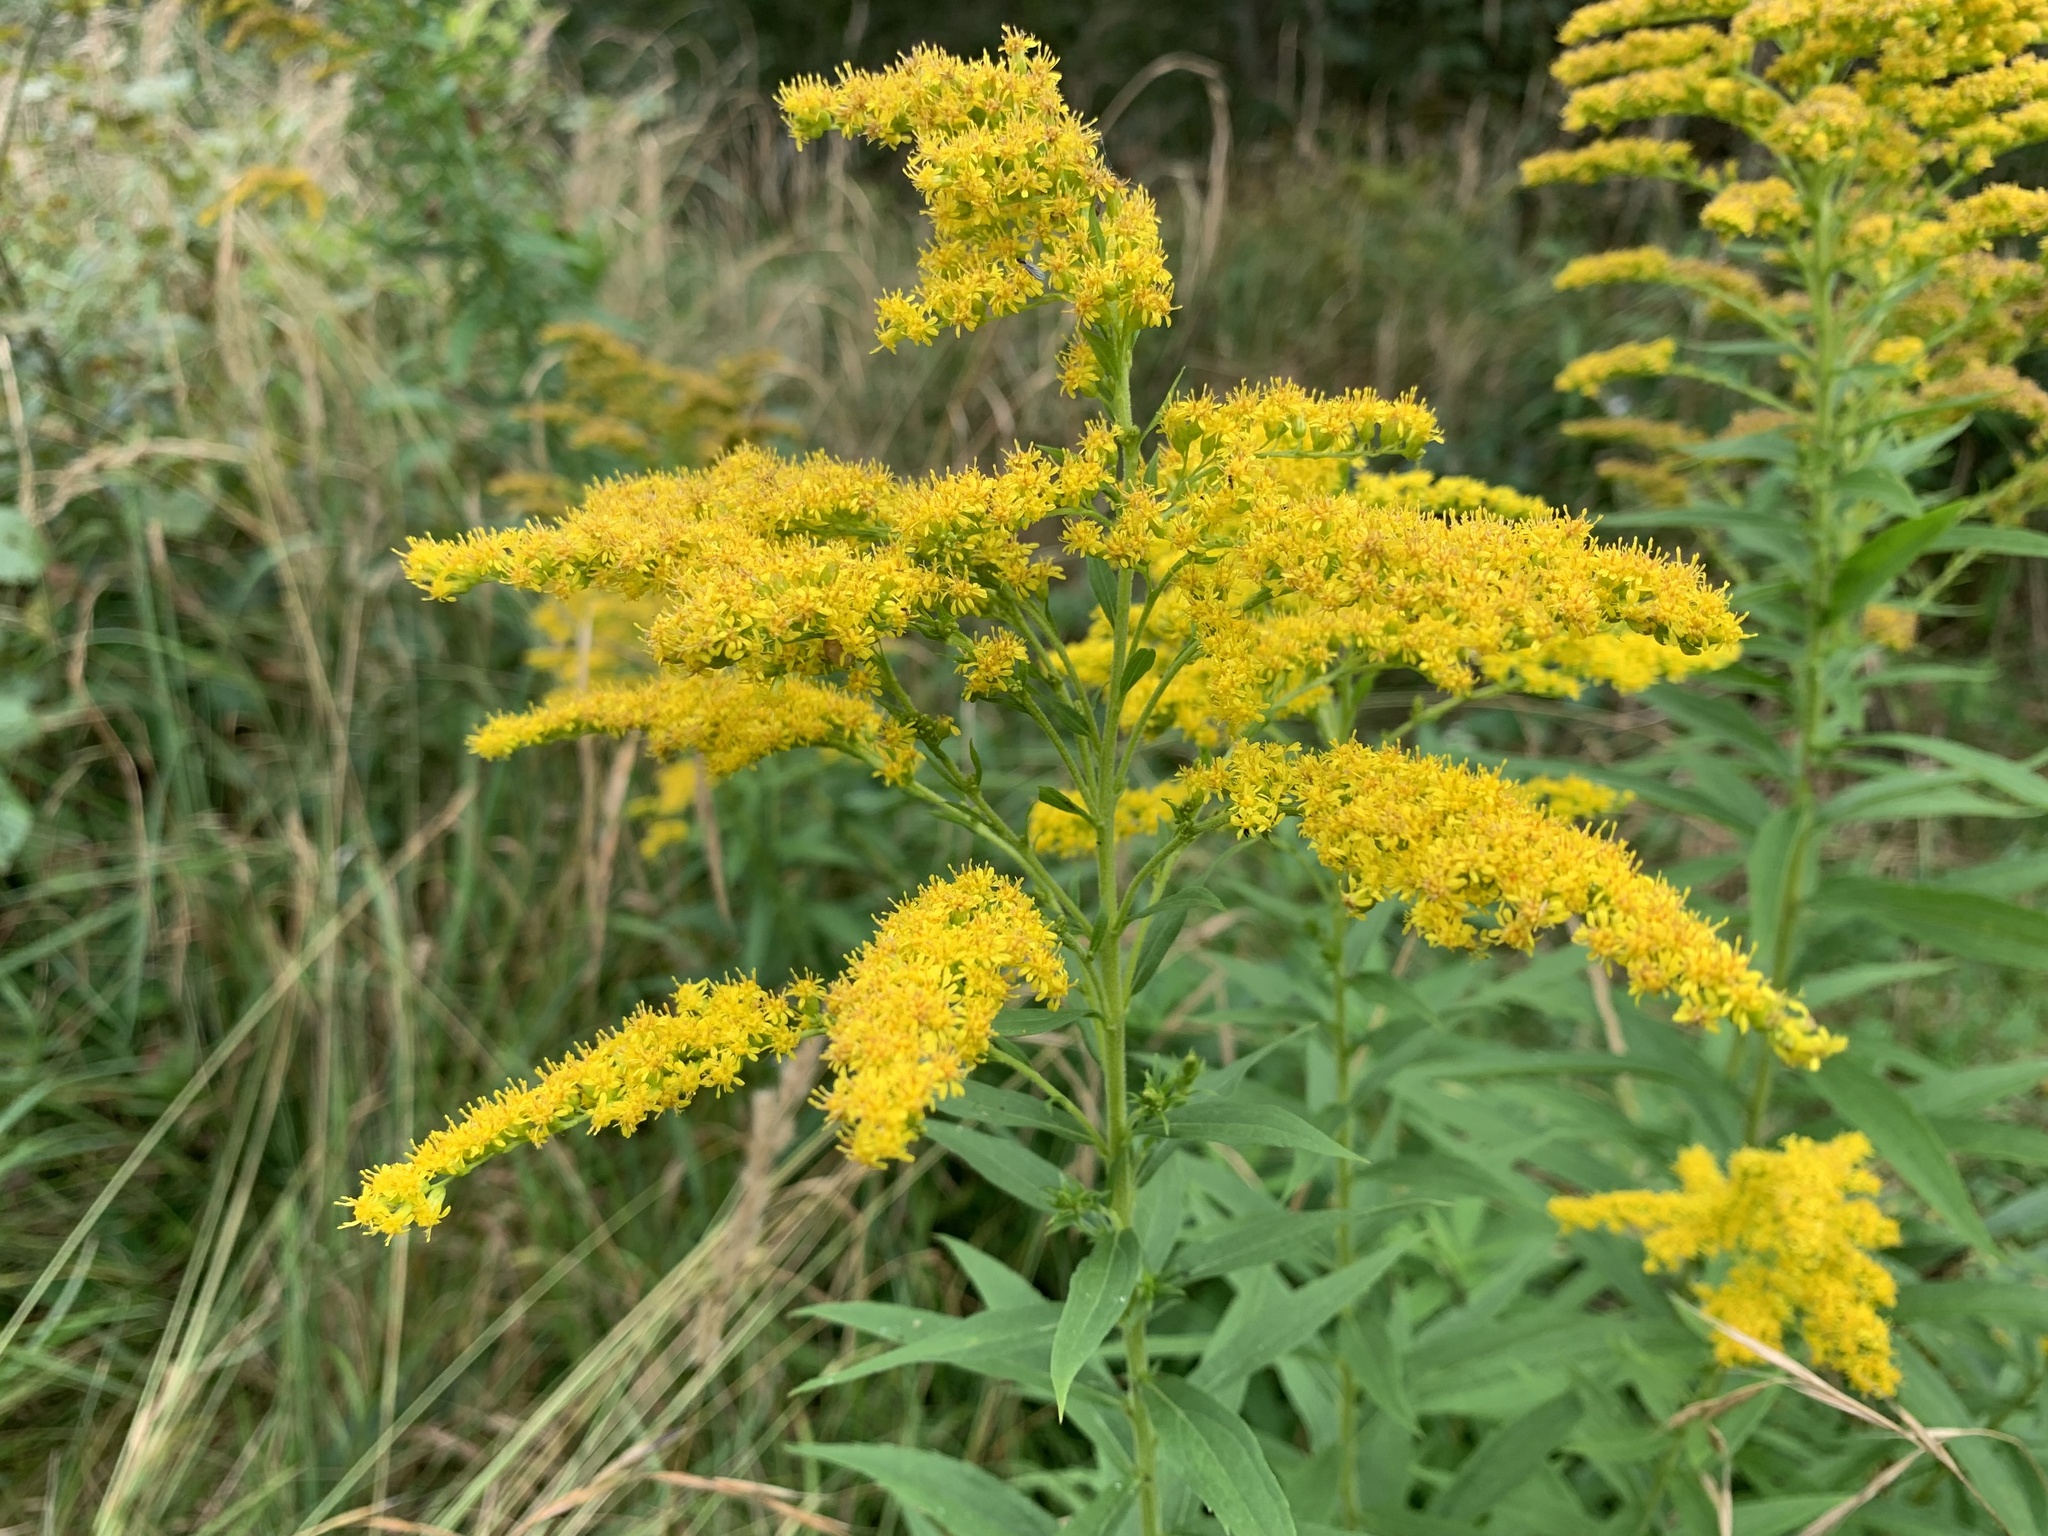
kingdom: Plantae
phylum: Tracheophyta
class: Magnoliopsida
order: Asterales
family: Asteraceae
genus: Solidago
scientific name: Solidago canadensis
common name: Canada goldenrod
